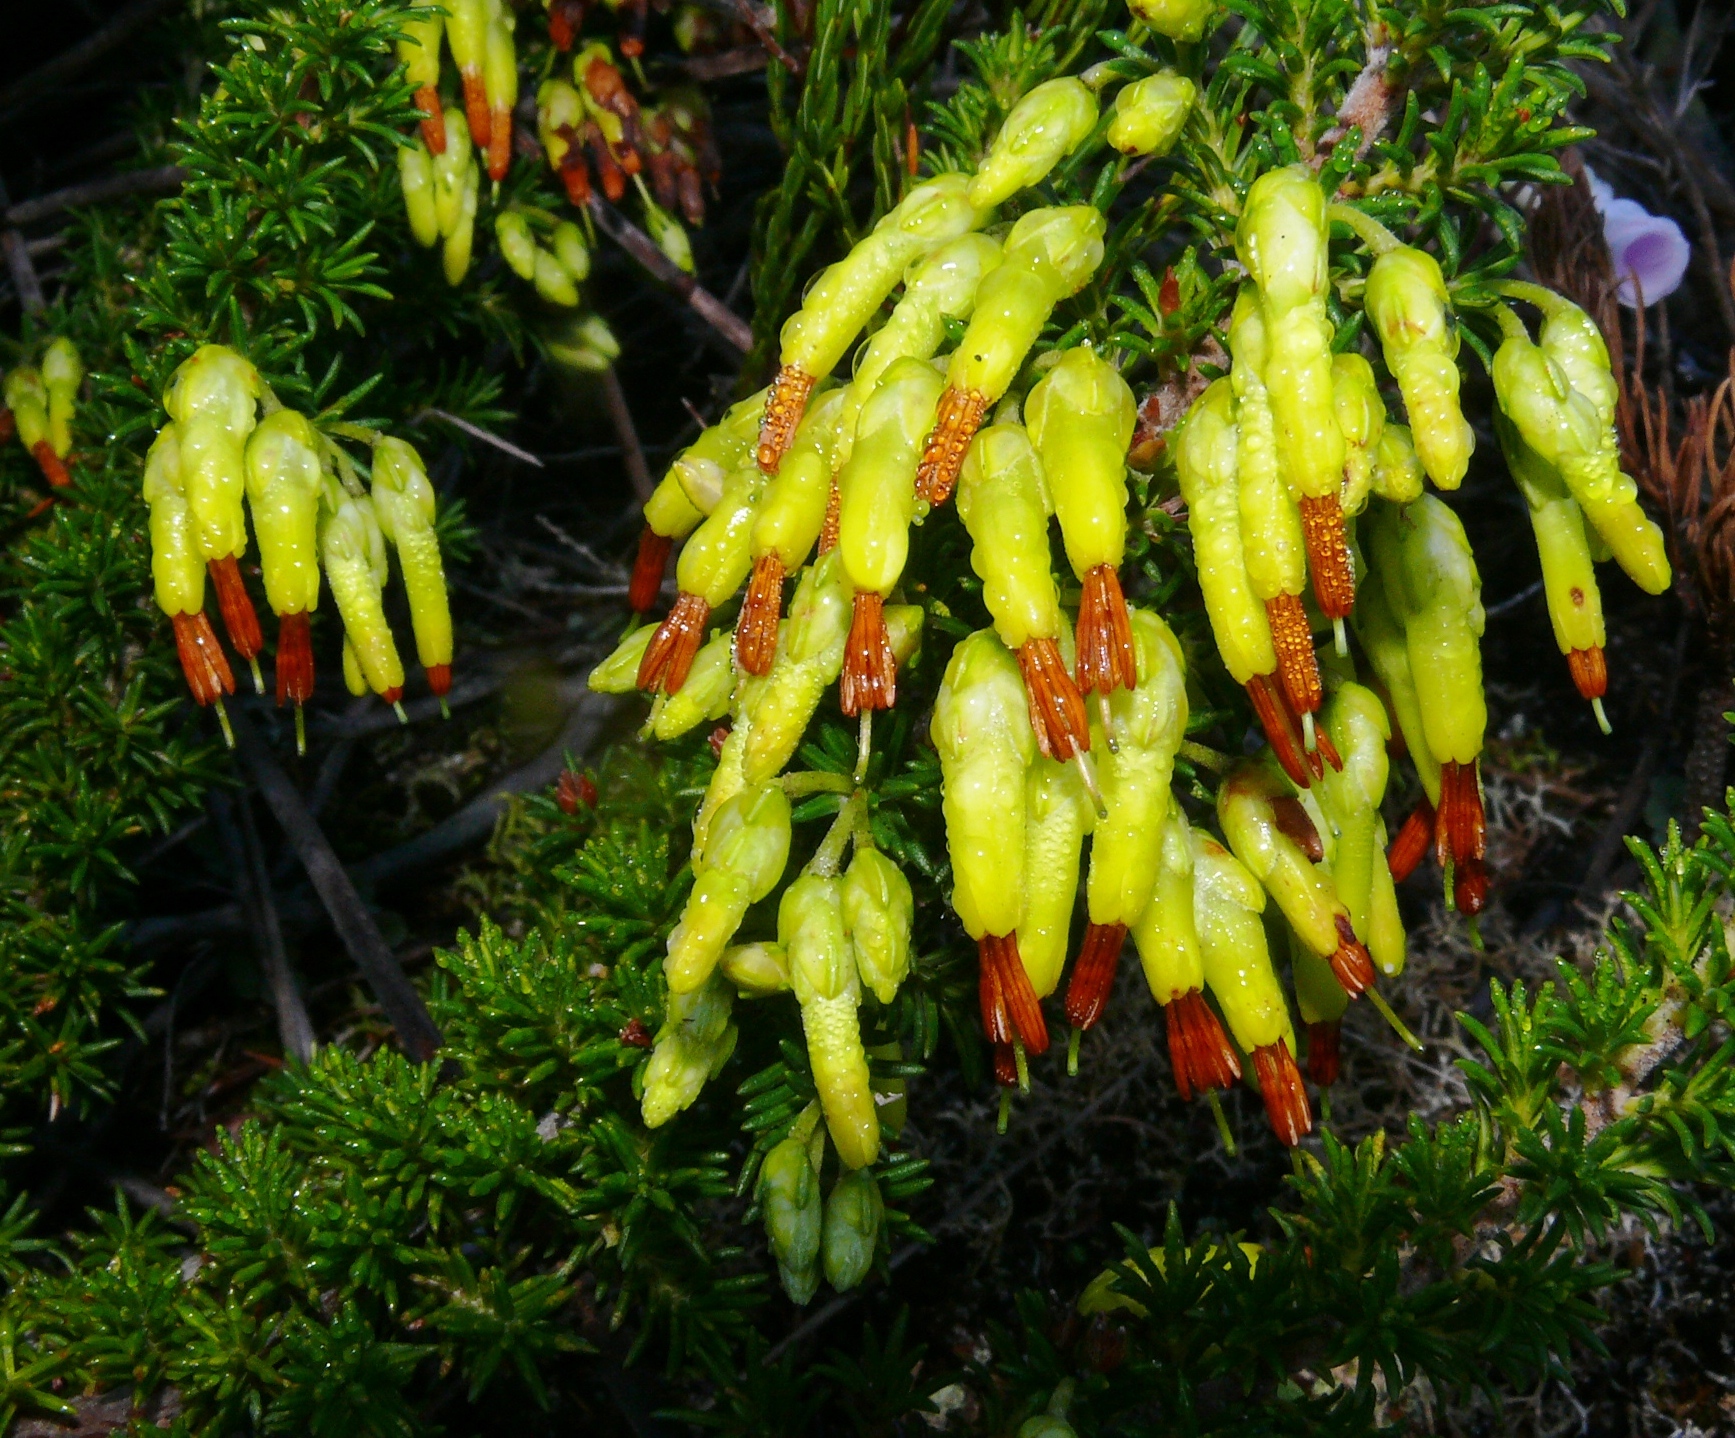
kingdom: Plantae
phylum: Tracheophyta
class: Magnoliopsida
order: Ericales
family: Ericaceae
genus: Erica
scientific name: Erica coccinea
